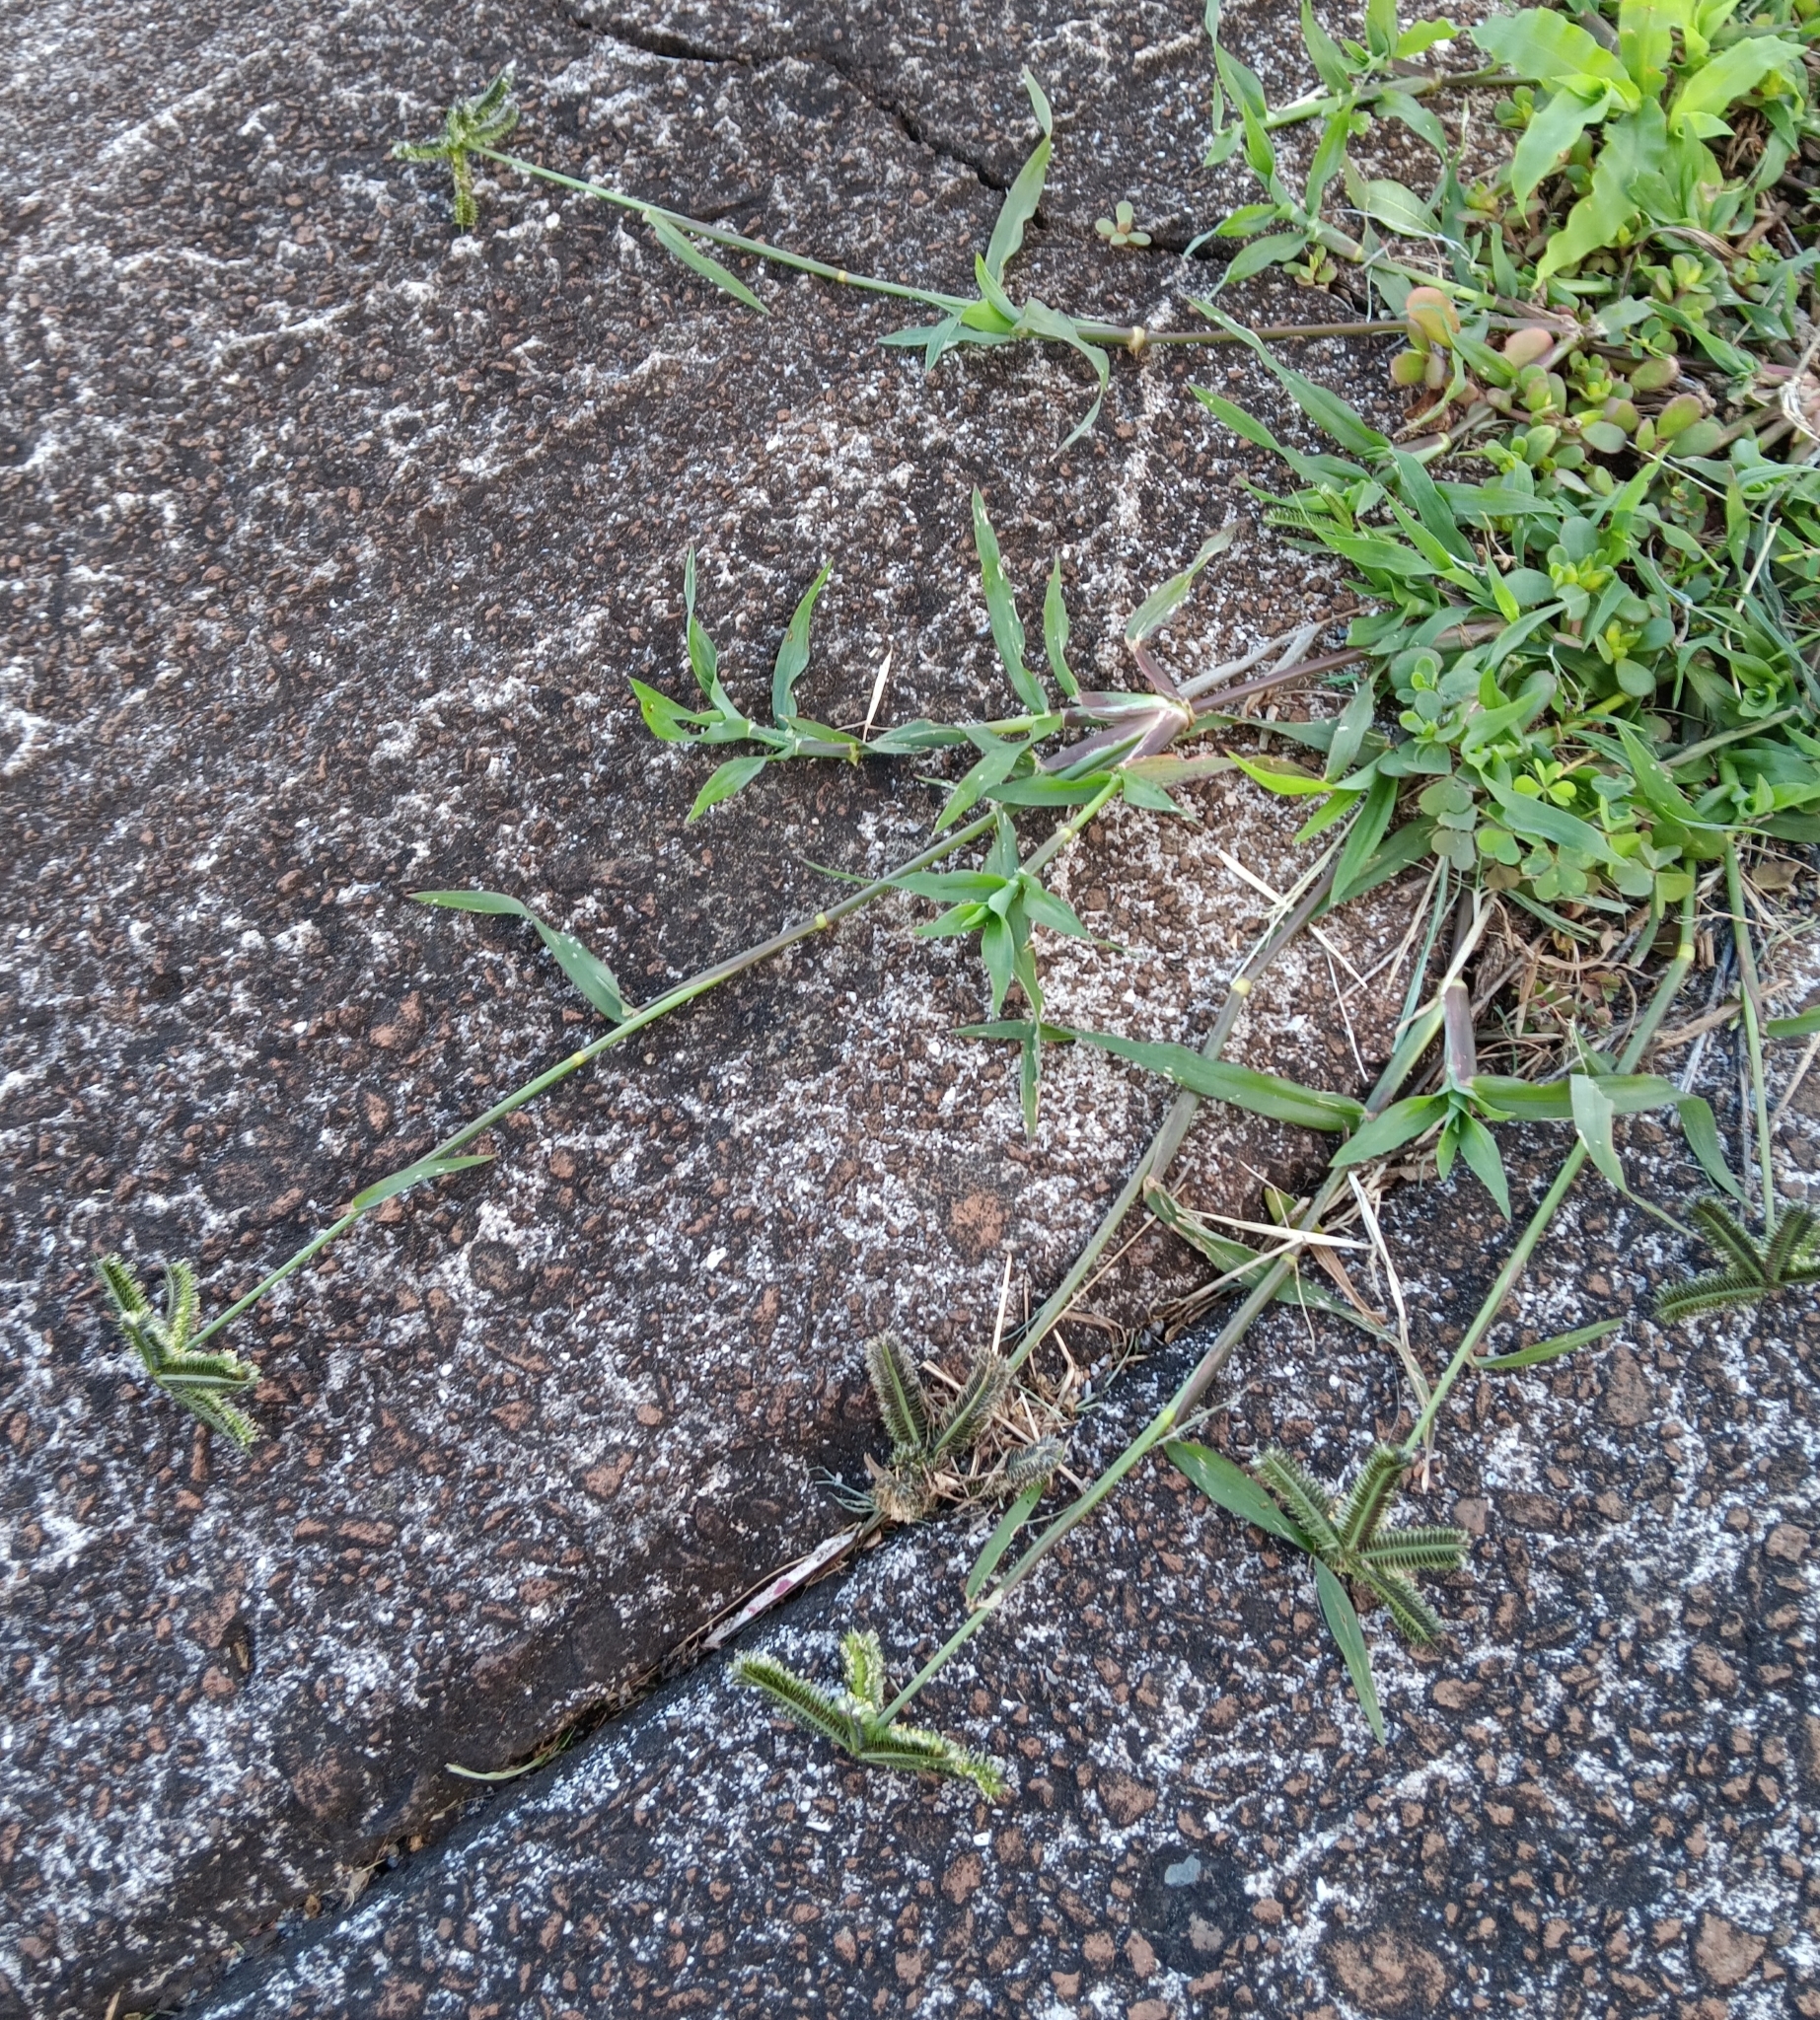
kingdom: Plantae
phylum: Tracheophyta
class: Liliopsida
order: Poales
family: Poaceae
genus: Dactyloctenium
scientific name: Dactyloctenium aegyptium
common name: Egyptian grass
